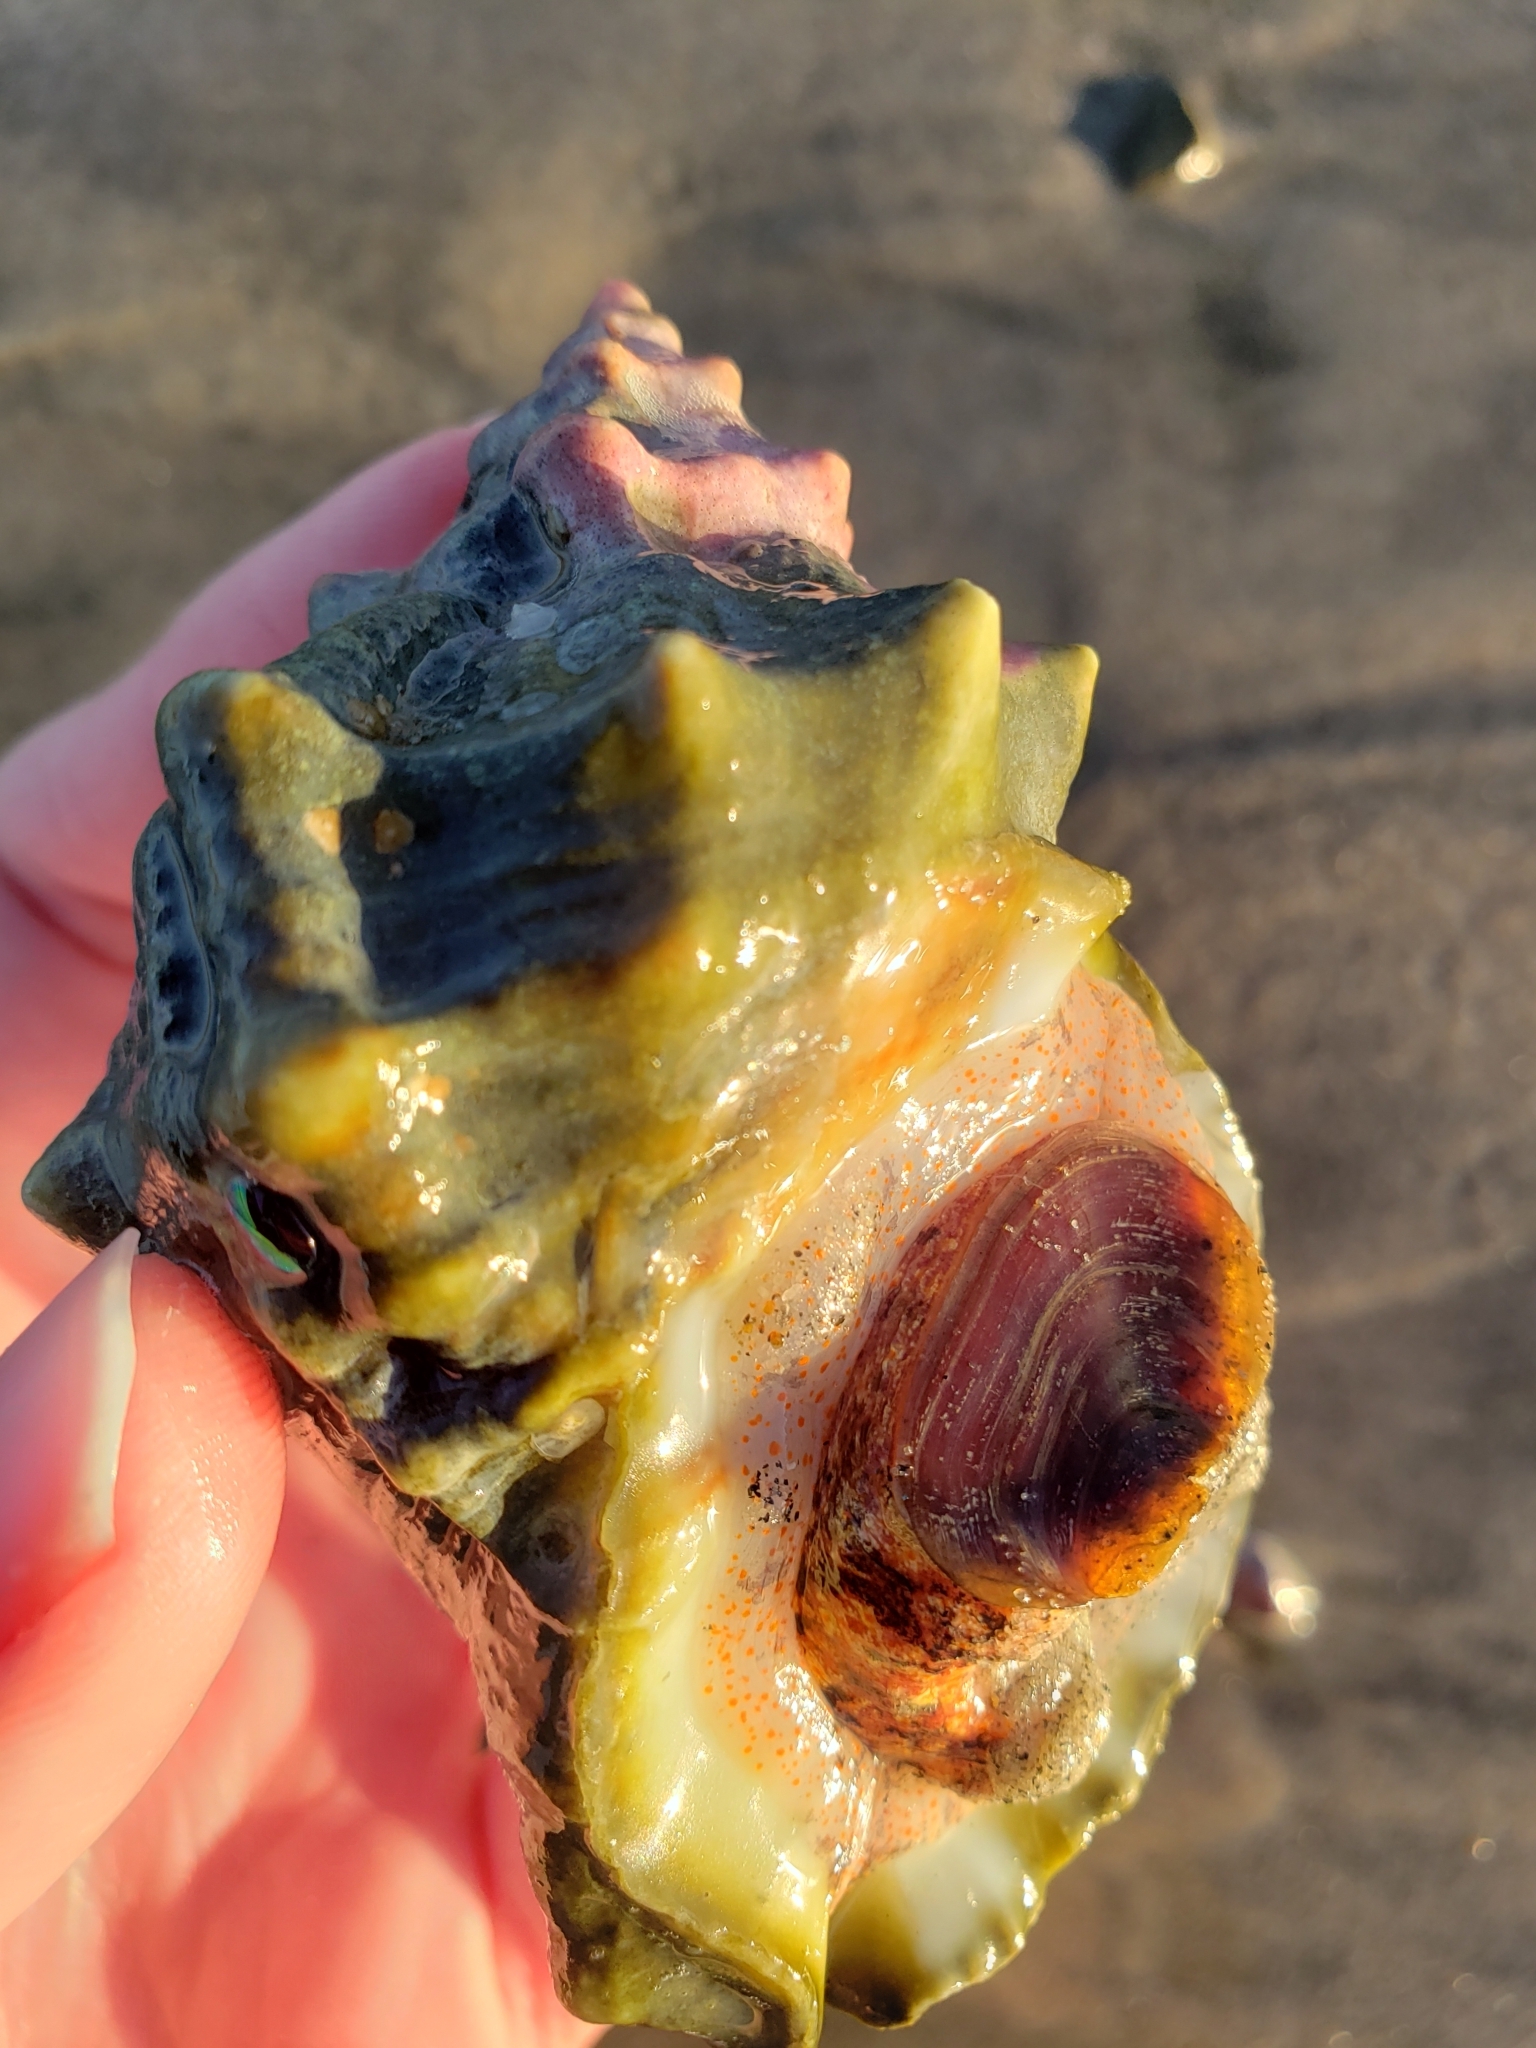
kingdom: Animalia
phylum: Mollusca
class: Gastropoda
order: Littorinimorpha
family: Bursidae
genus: Crossata
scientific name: Crossata californica
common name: California frogsnail
